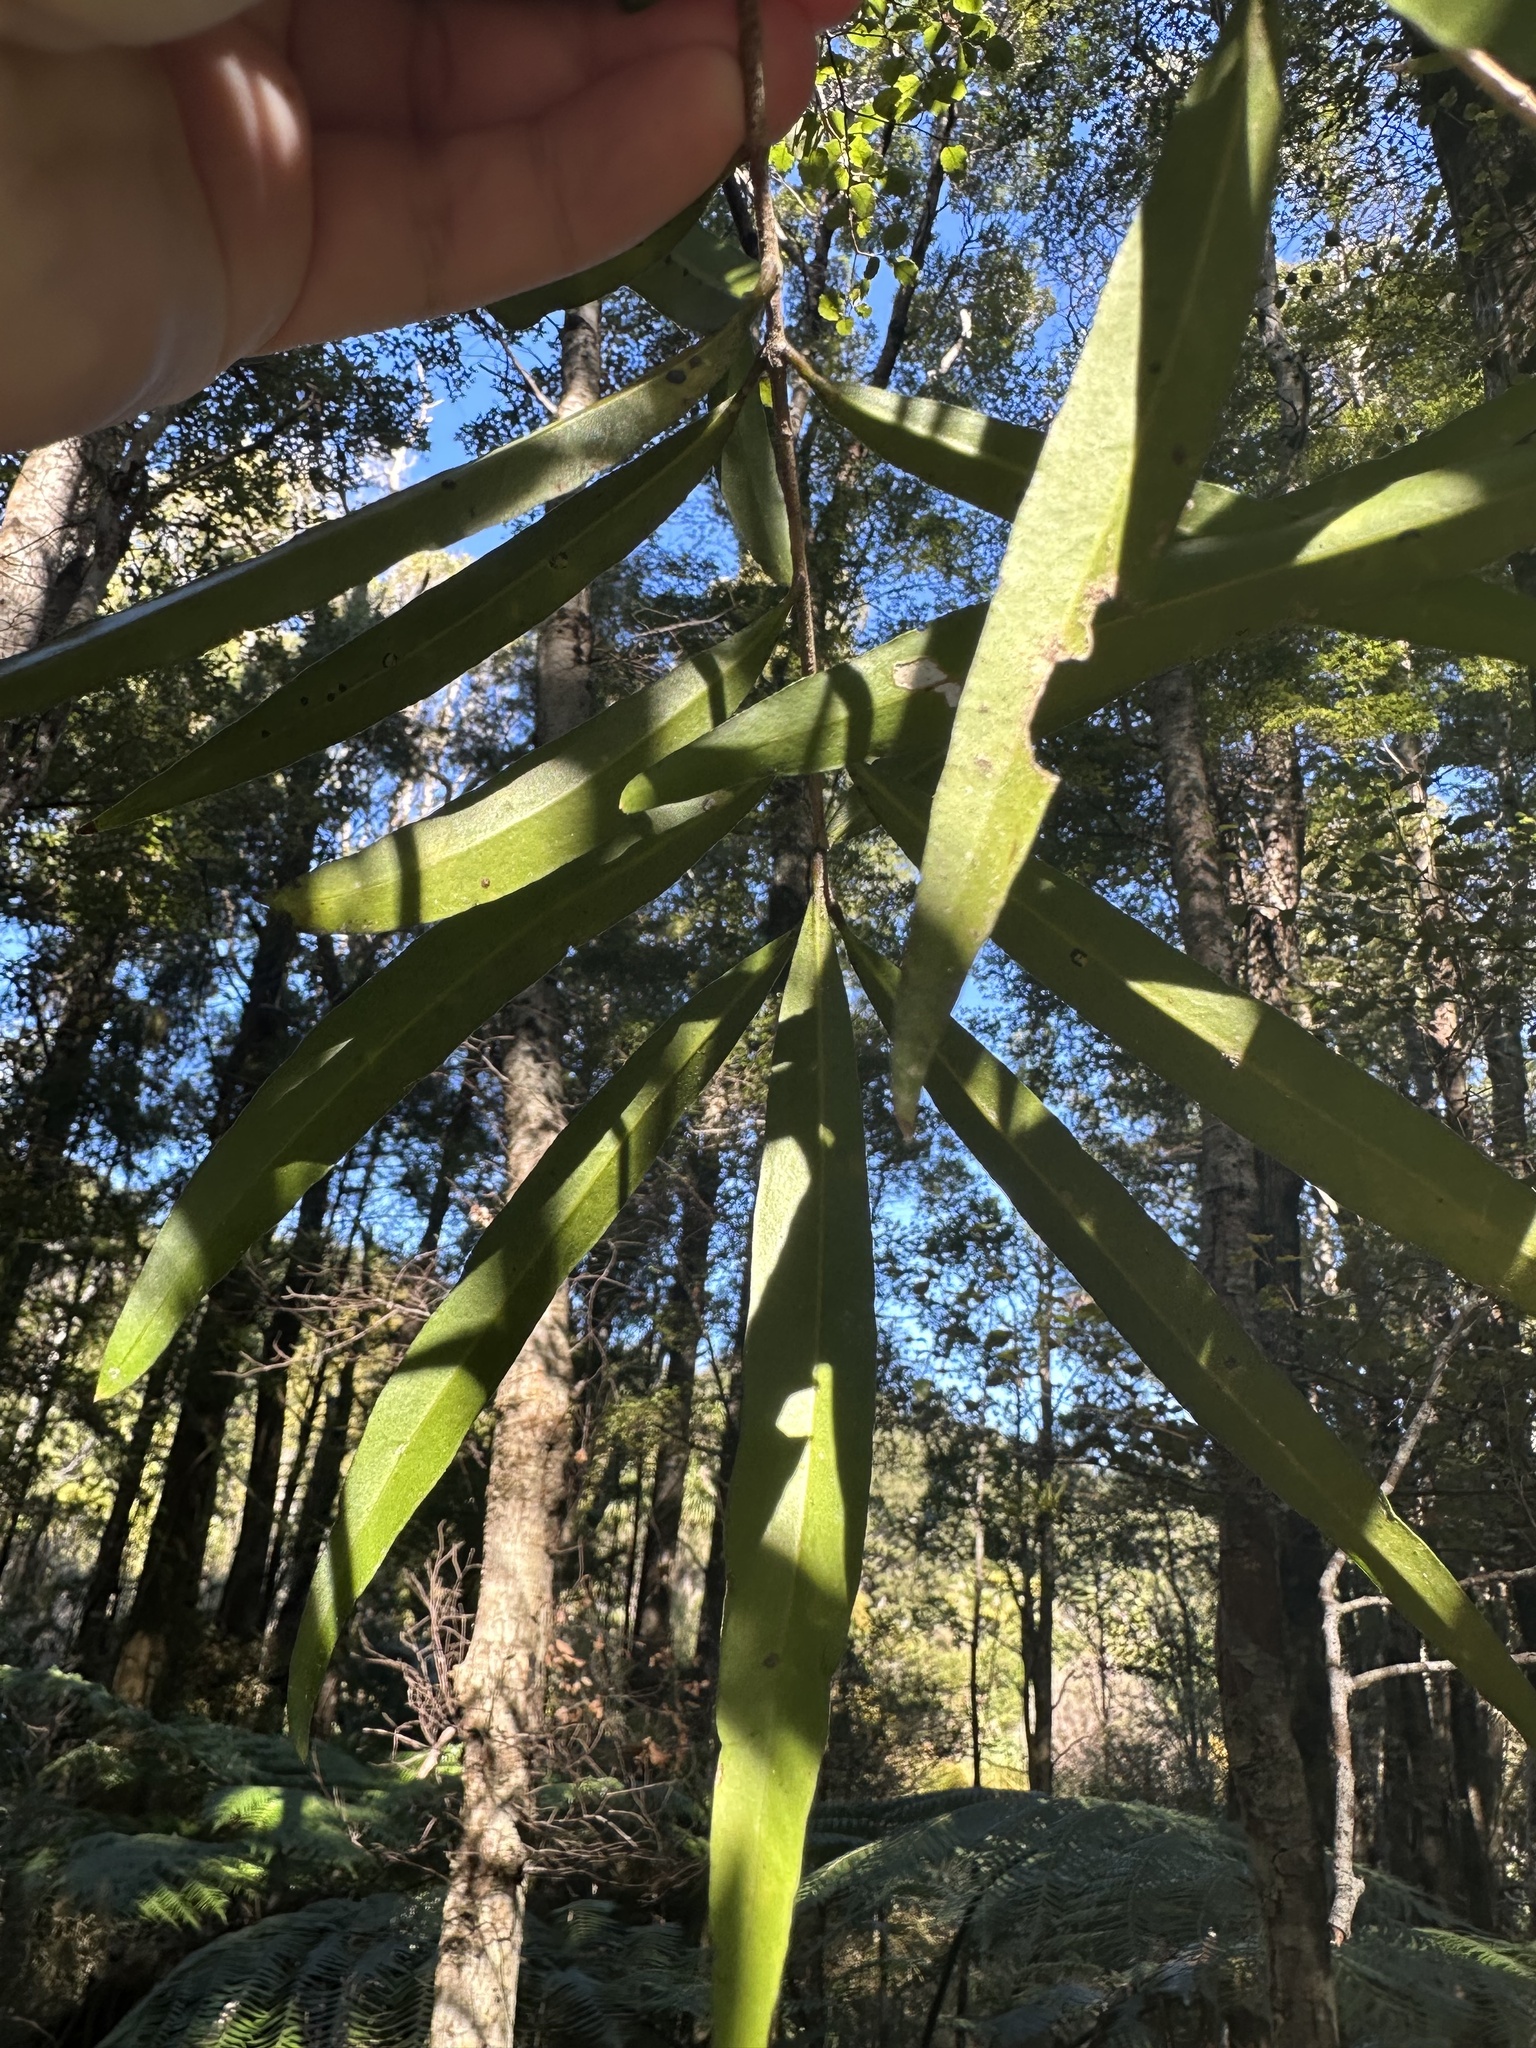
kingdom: Plantae
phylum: Tracheophyta
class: Magnoliopsida
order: Lamiales
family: Oleaceae
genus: Nestegis
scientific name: Nestegis lanceolata
